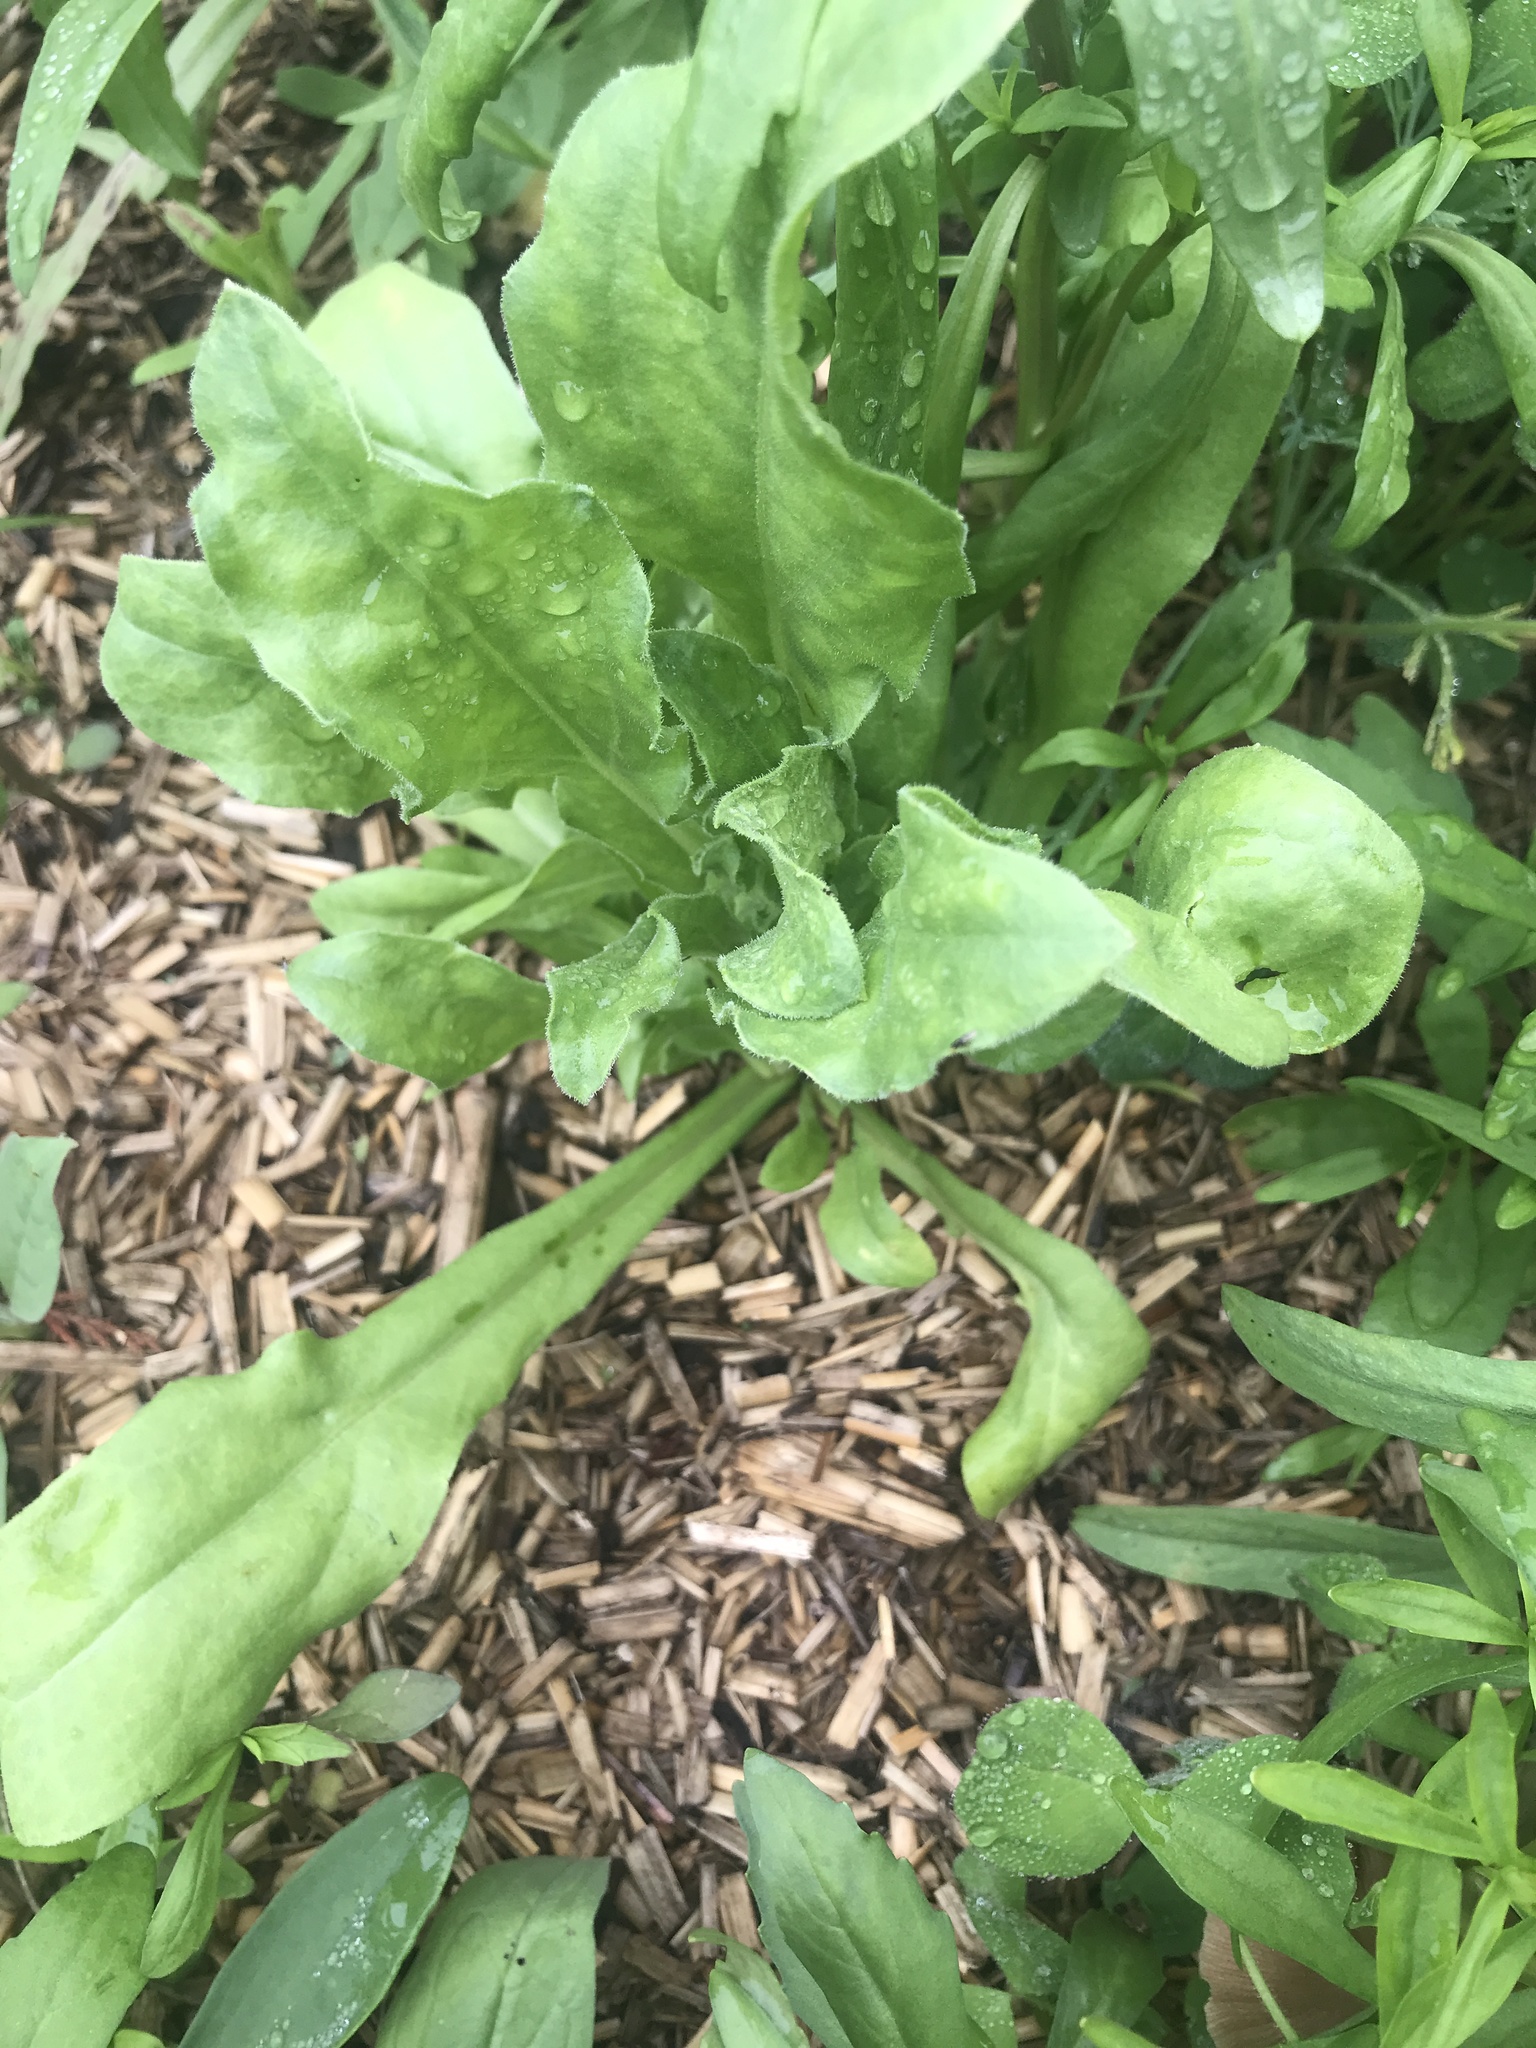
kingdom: Plantae
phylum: Tracheophyta
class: Magnoliopsida
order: Asterales
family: Asteraceae
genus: Calendula
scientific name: Calendula officinalis
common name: Pot marigold
